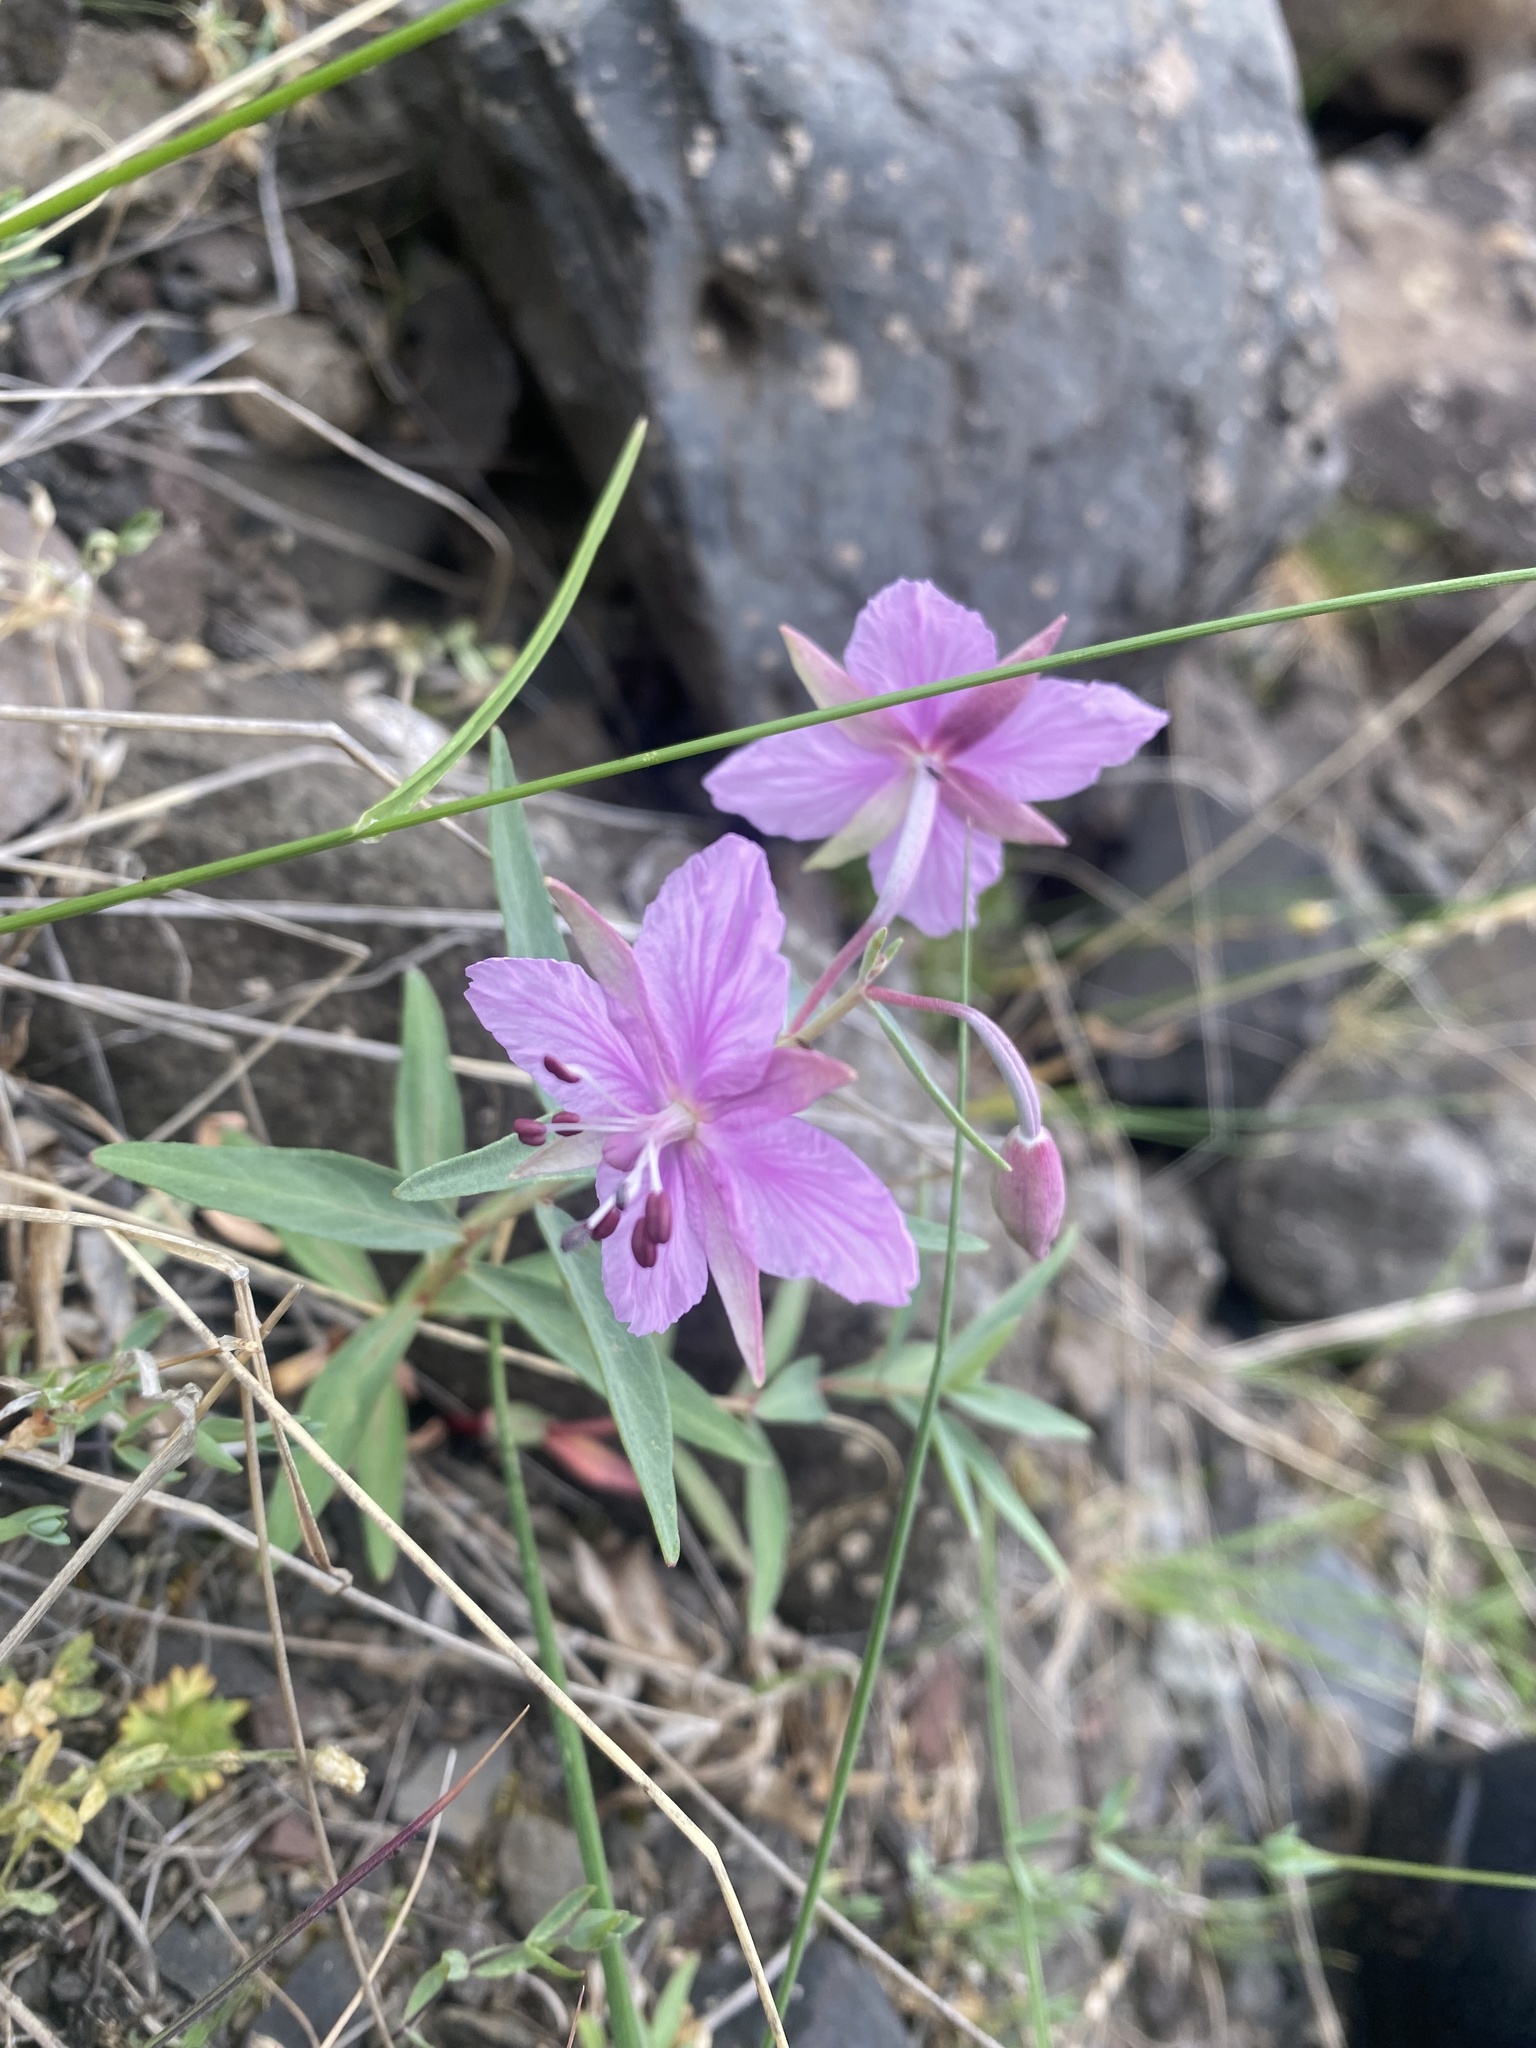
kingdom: Plantae
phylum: Tracheophyta
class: Magnoliopsida
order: Myrtales
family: Onagraceae
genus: Chamaenerion
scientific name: Chamaenerion latifolium
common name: Dwarf fireweed
